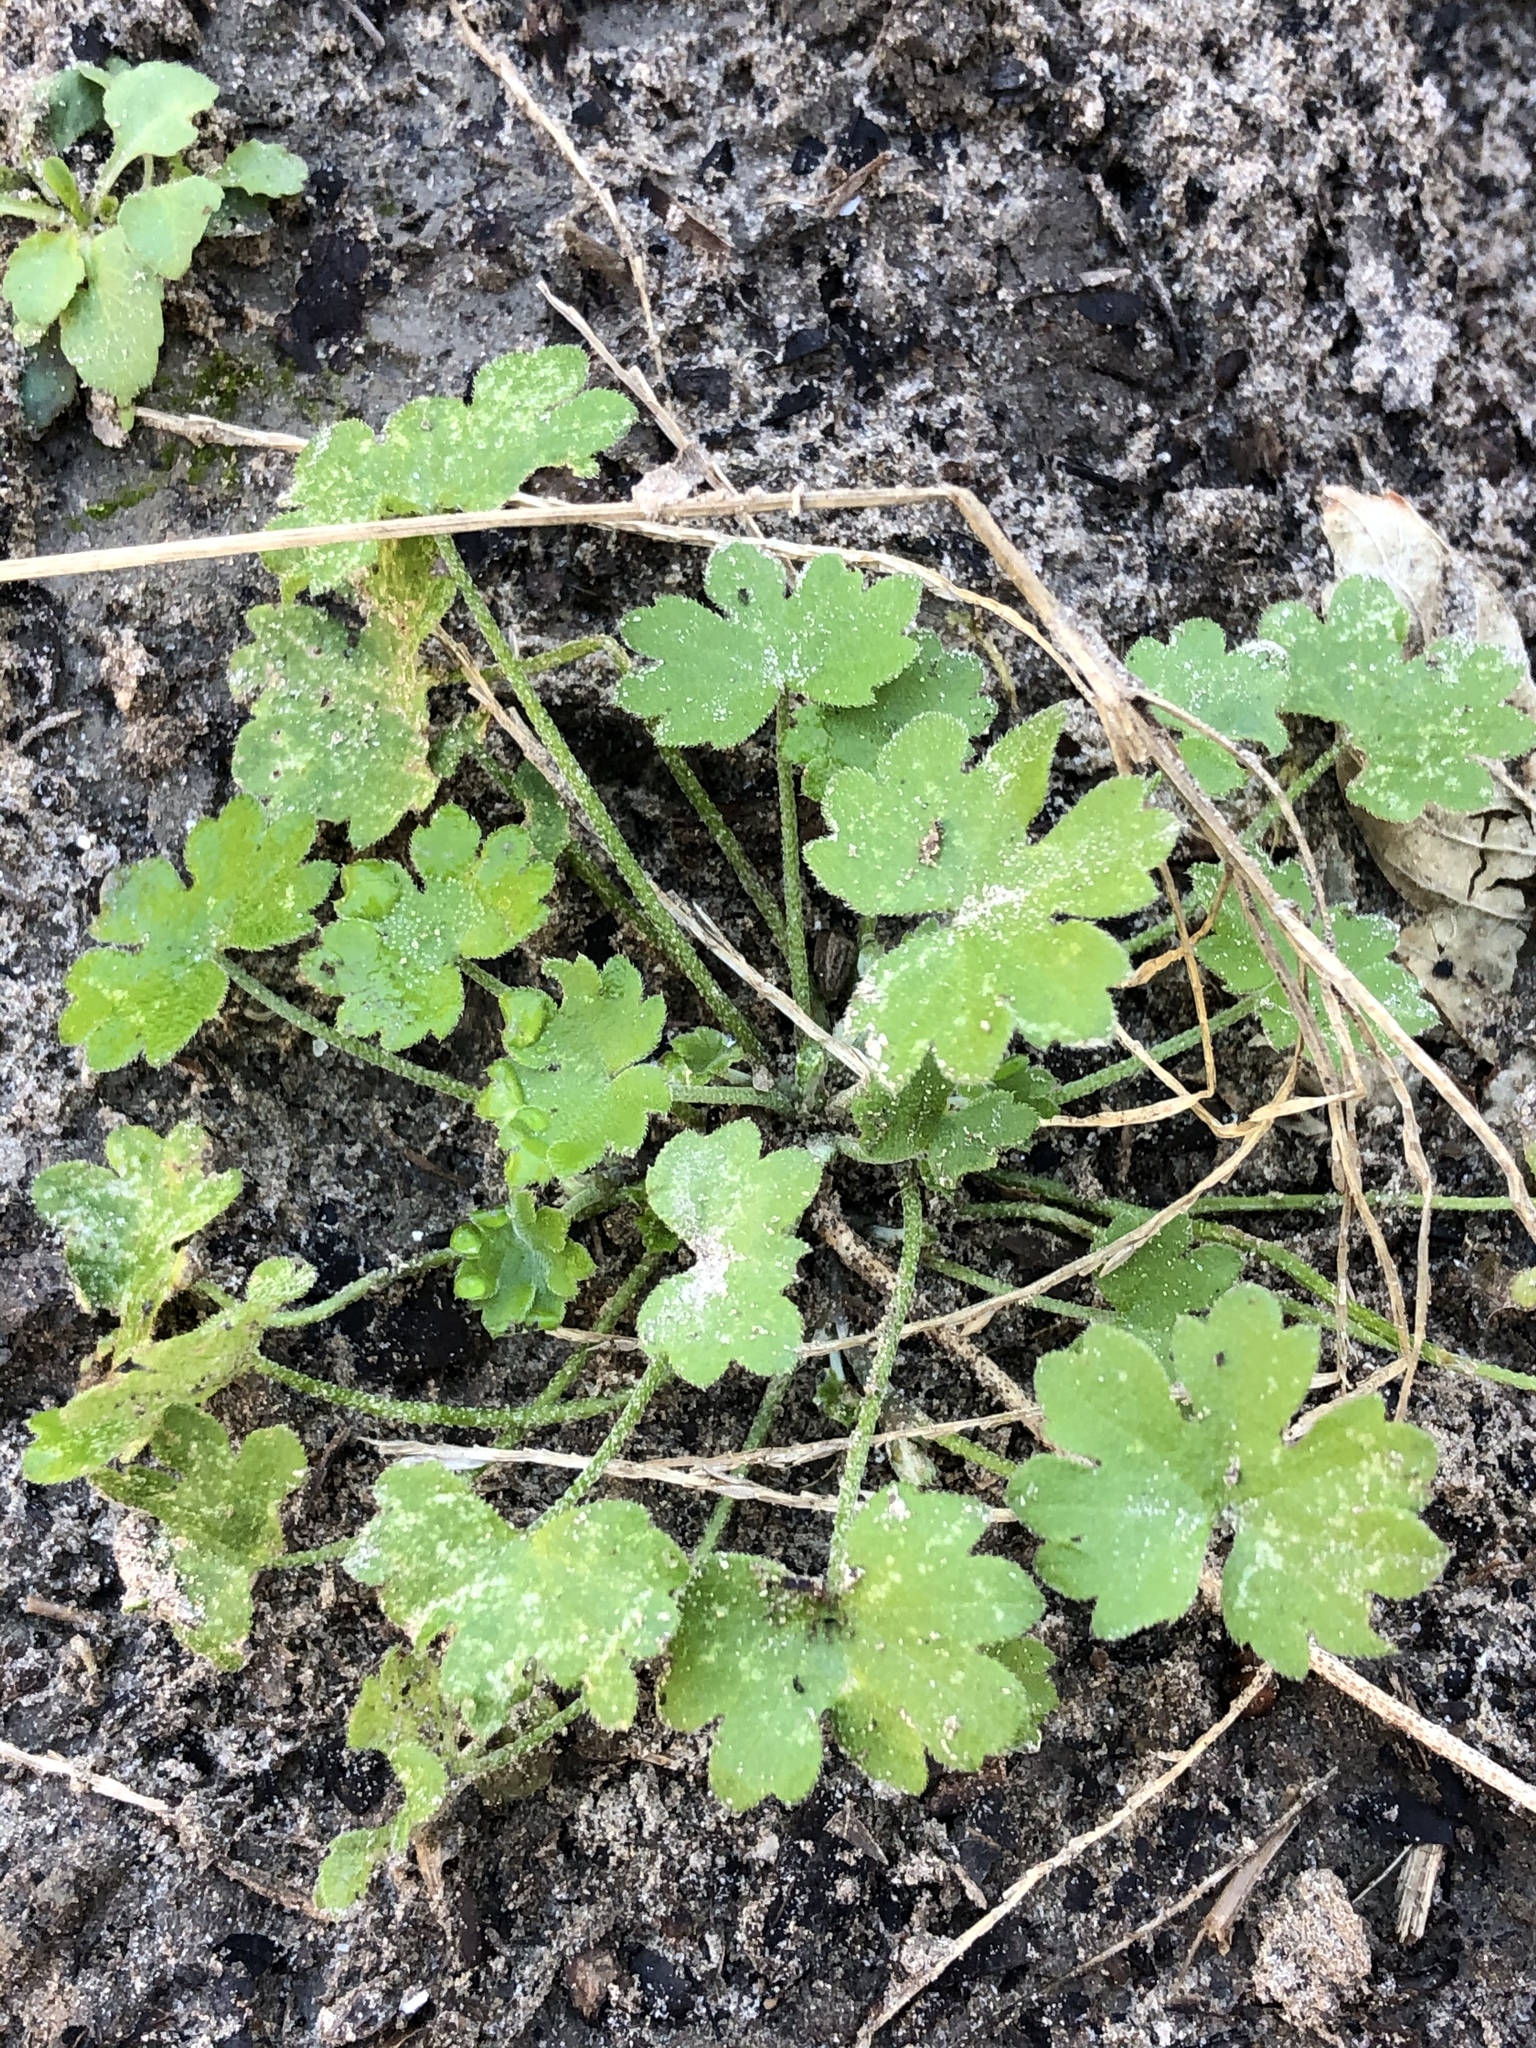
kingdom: Plantae
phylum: Tracheophyta
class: Magnoliopsida
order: Apiales
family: Apiaceae
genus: Bowlesia
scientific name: Bowlesia incana
